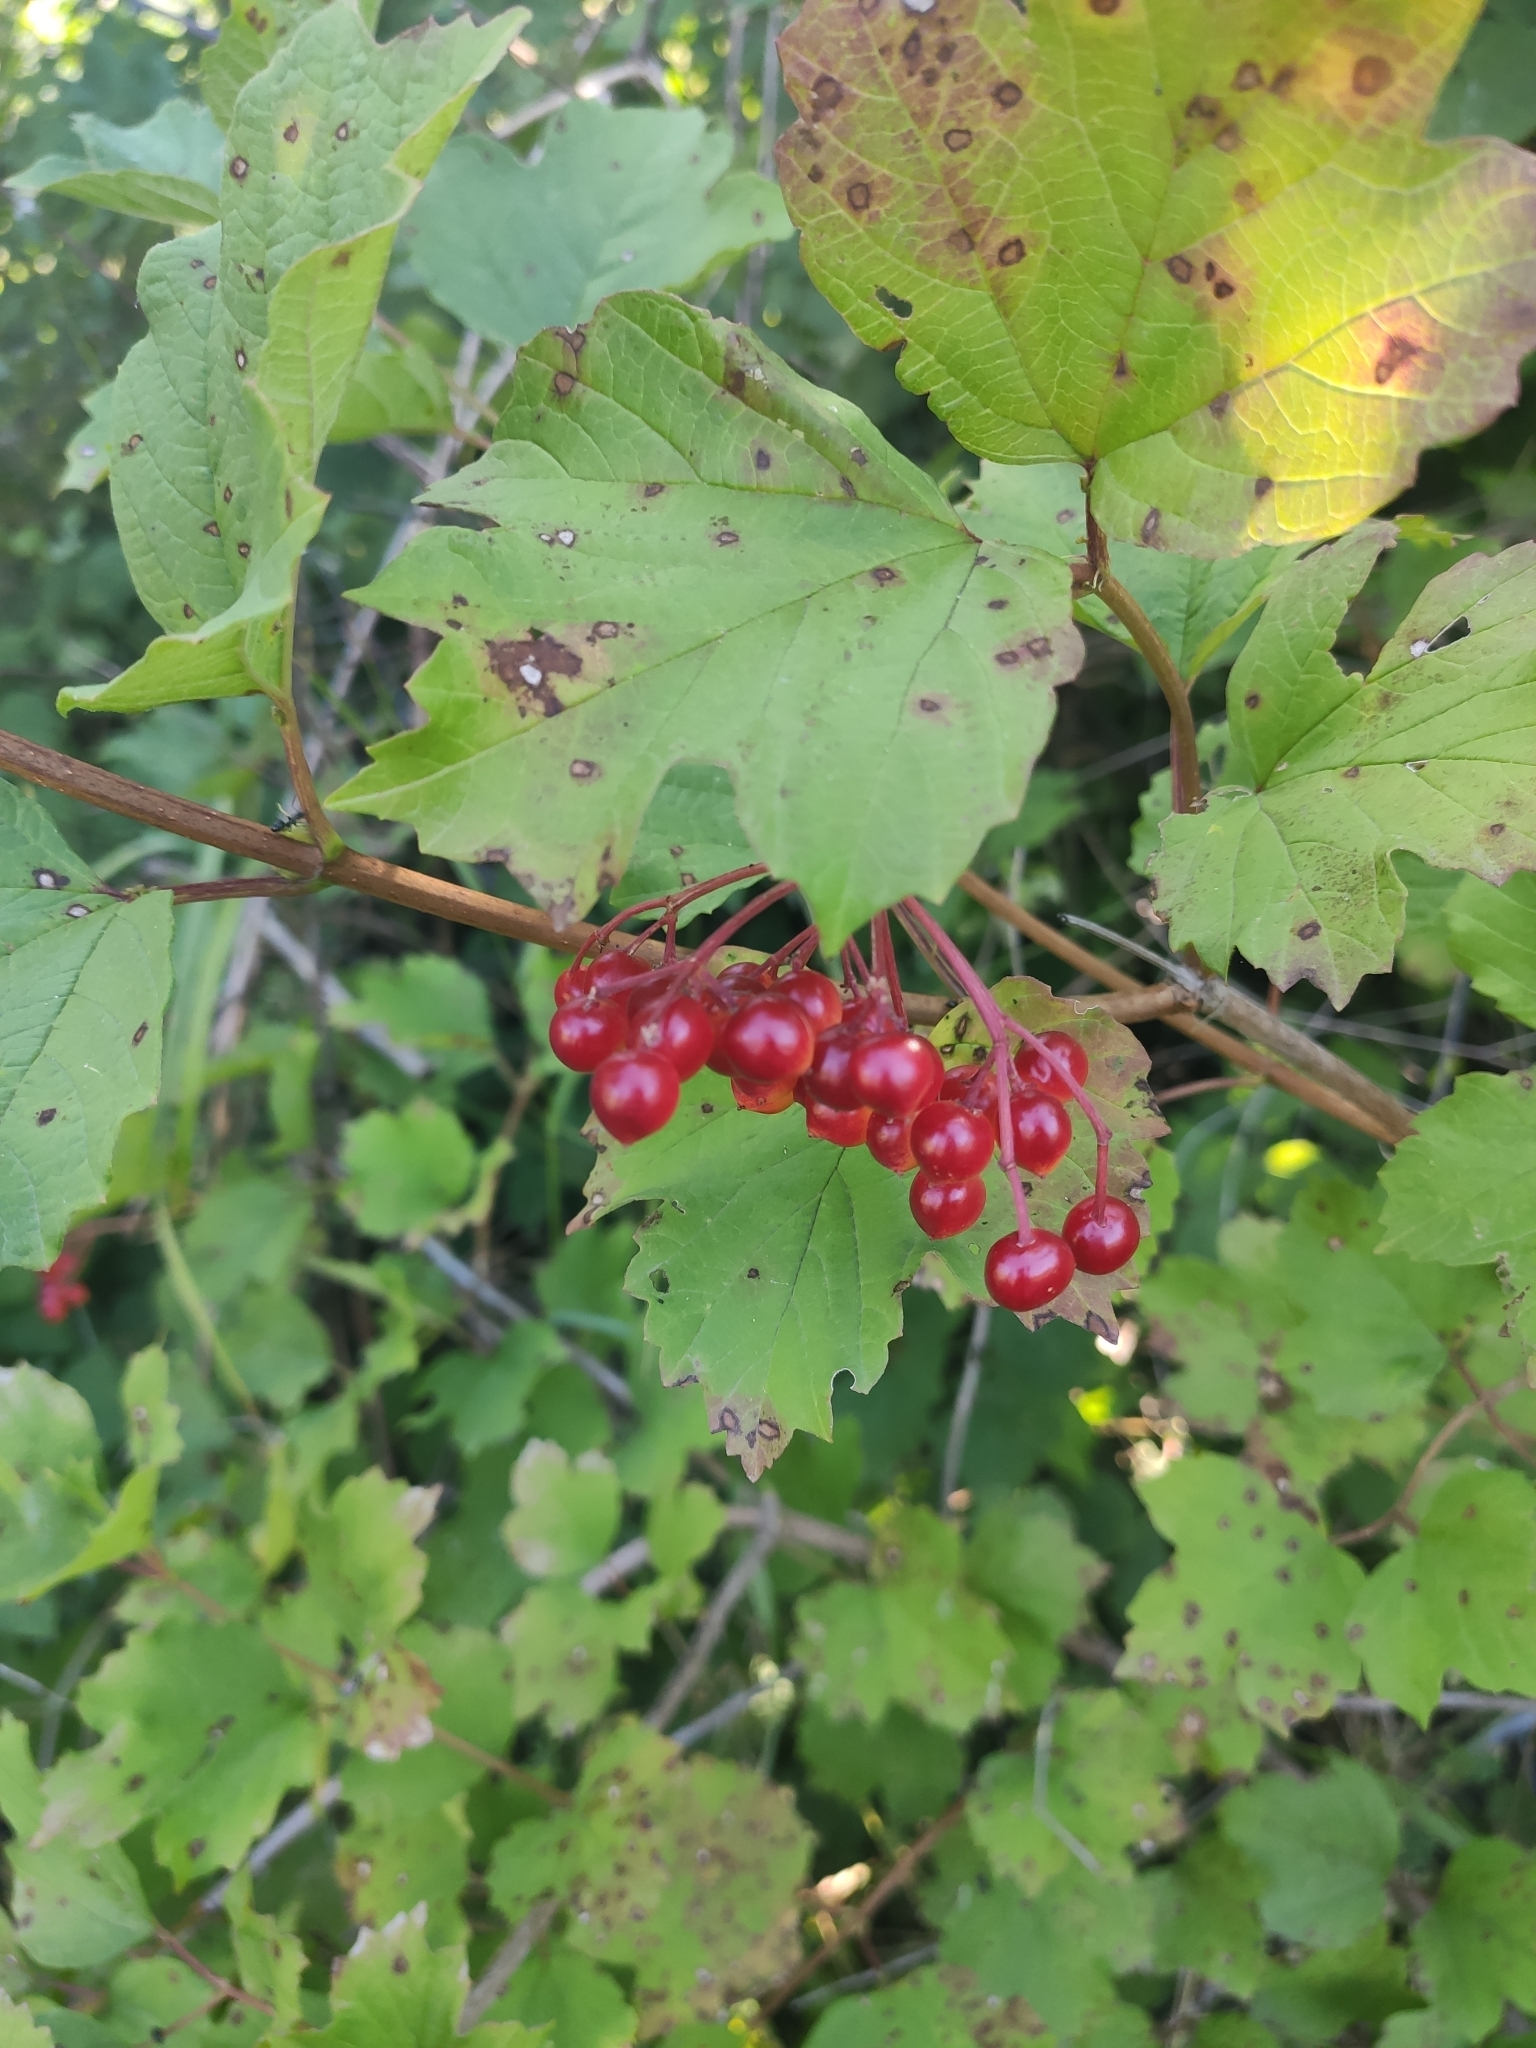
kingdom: Plantae
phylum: Tracheophyta
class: Magnoliopsida
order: Dipsacales
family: Viburnaceae
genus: Viburnum
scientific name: Viburnum opulus
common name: Guelder-rose
